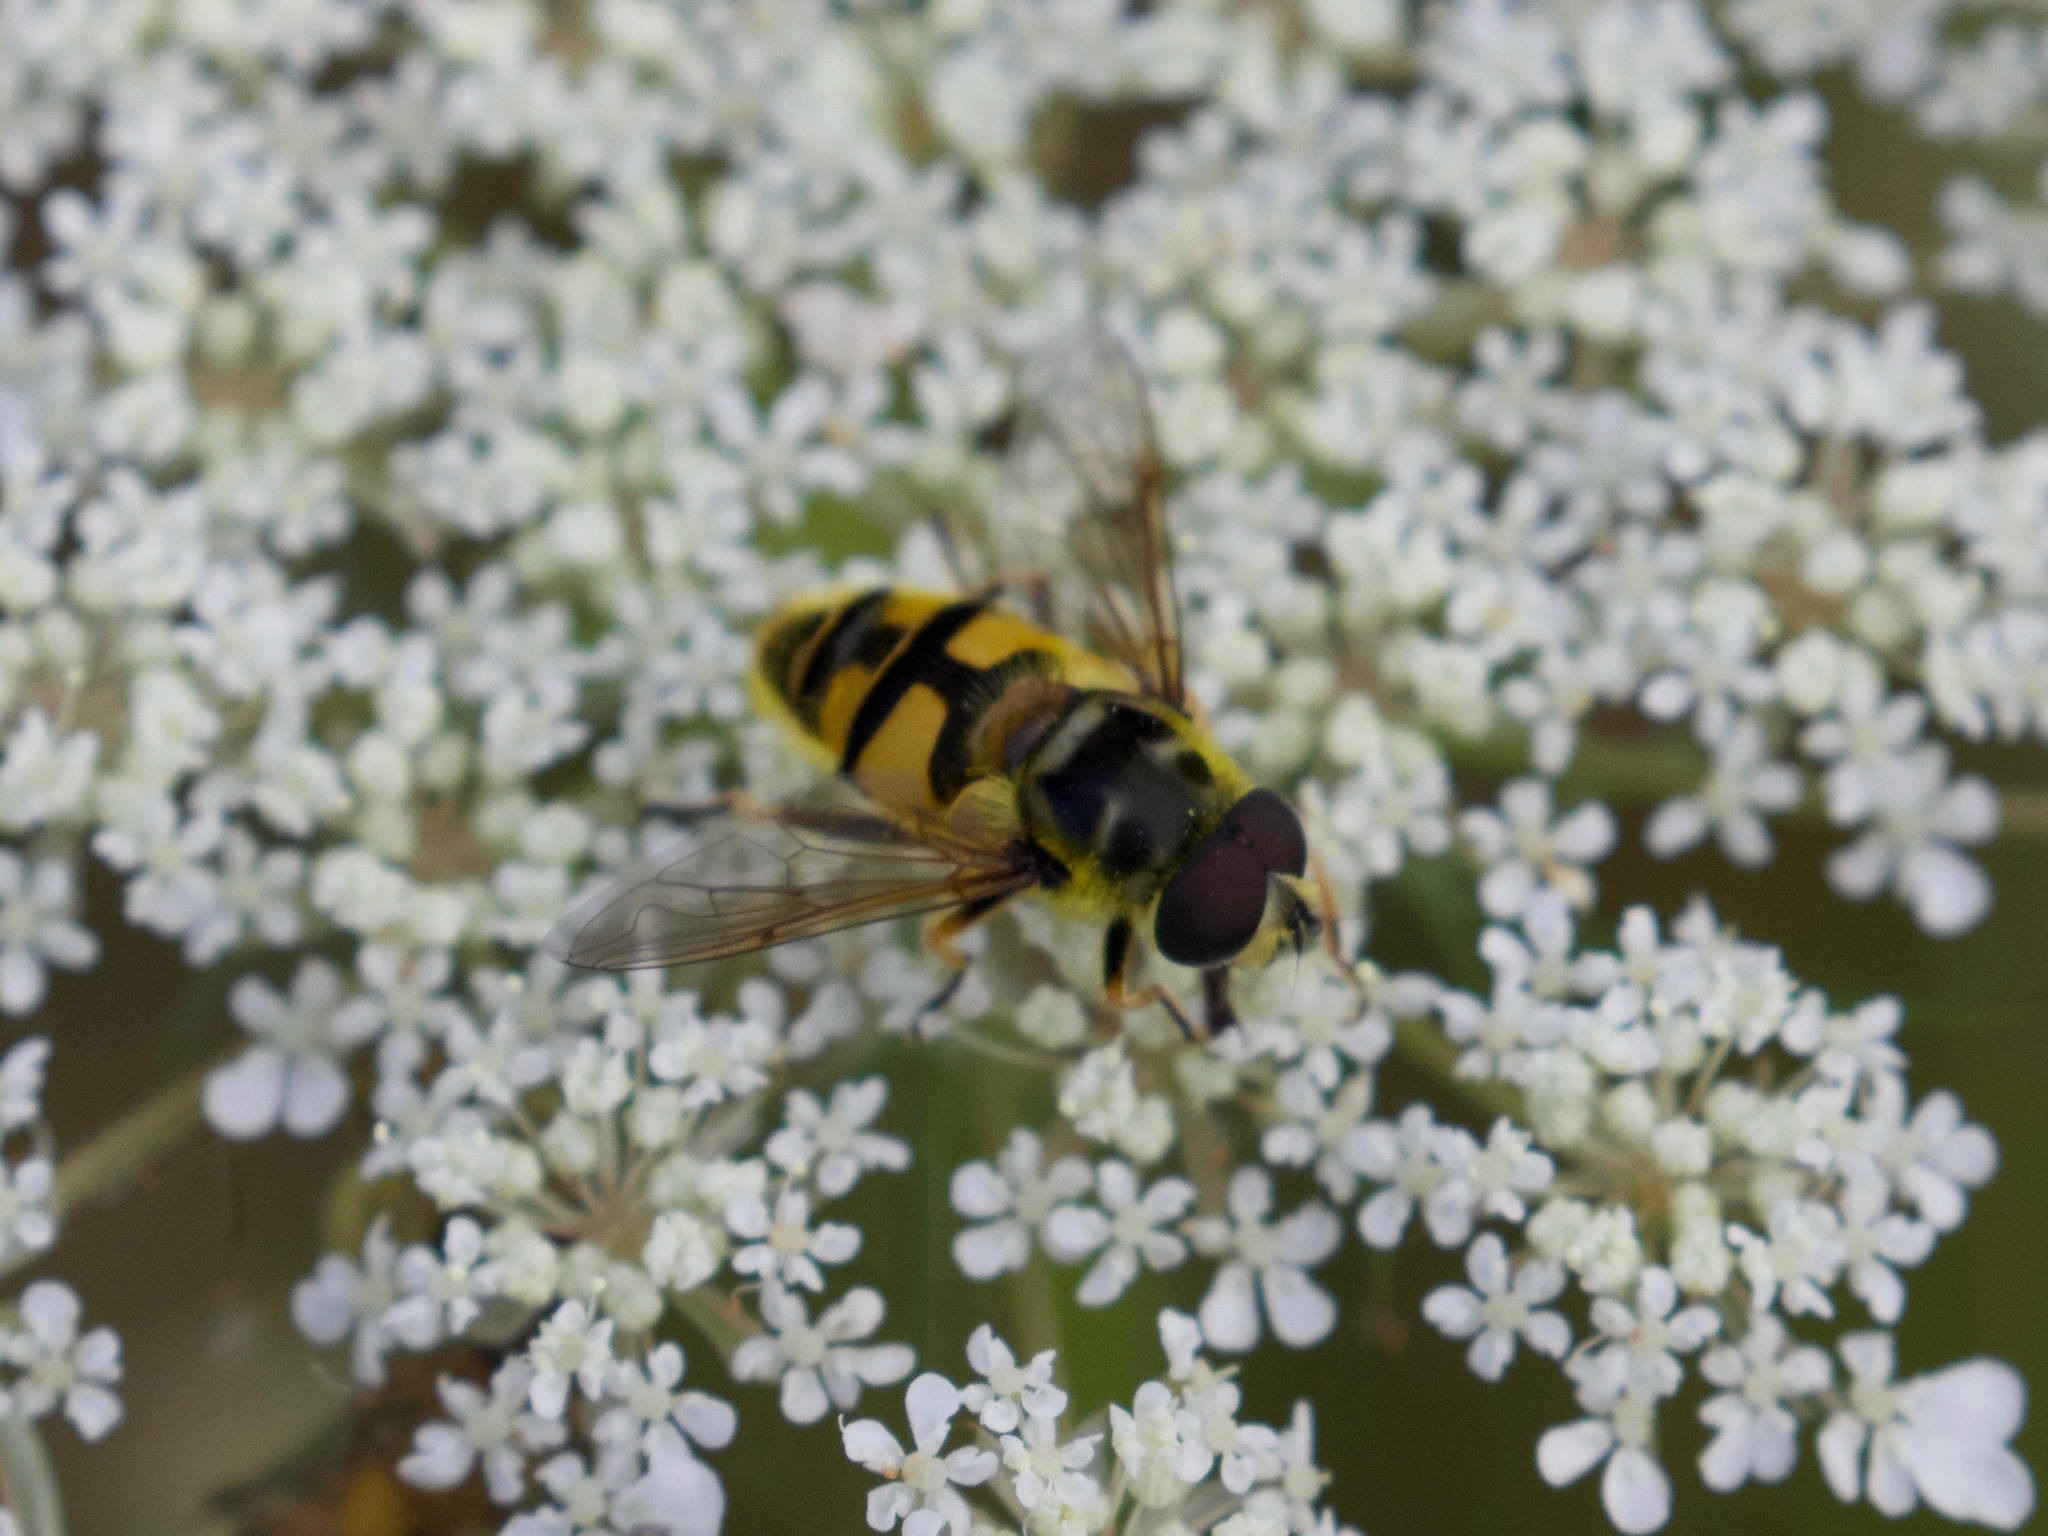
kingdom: Animalia
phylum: Arthropoda
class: Insecta
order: Diptera
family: Syrphidae
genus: Myathropa
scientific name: Myathropa florea
